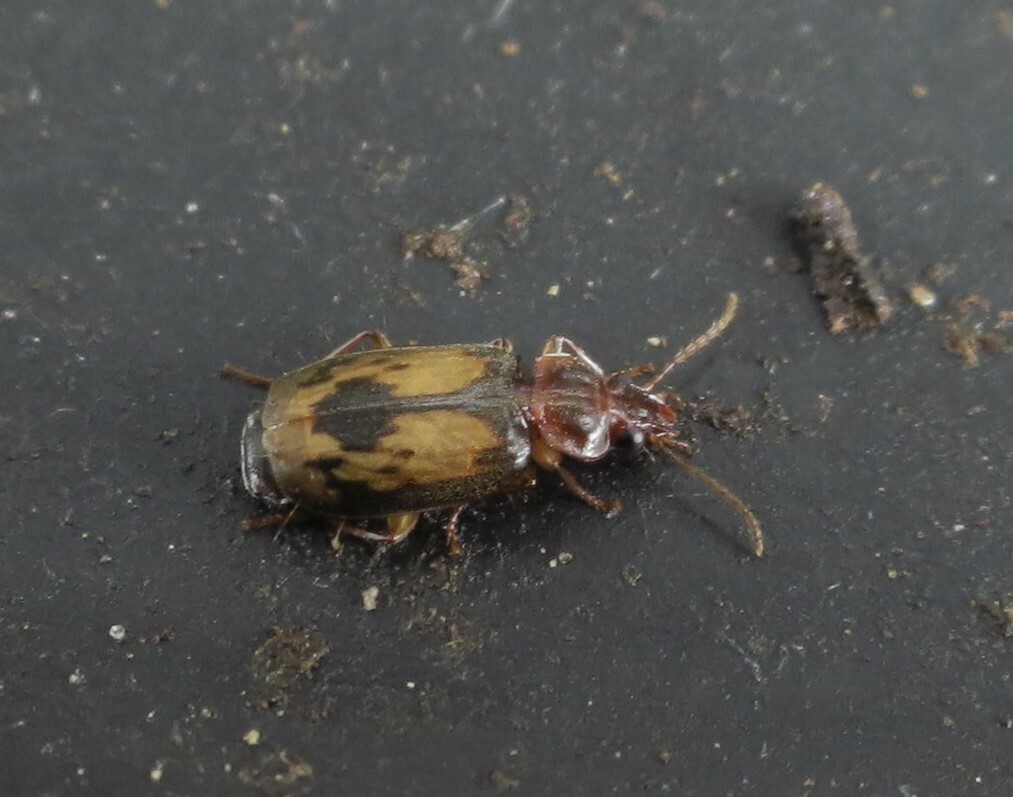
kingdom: Animalia
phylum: Arthropoda
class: Insecta
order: Coleoptera
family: Carabidae
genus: Philophlaeus
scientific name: Philophlaeus luculentus
